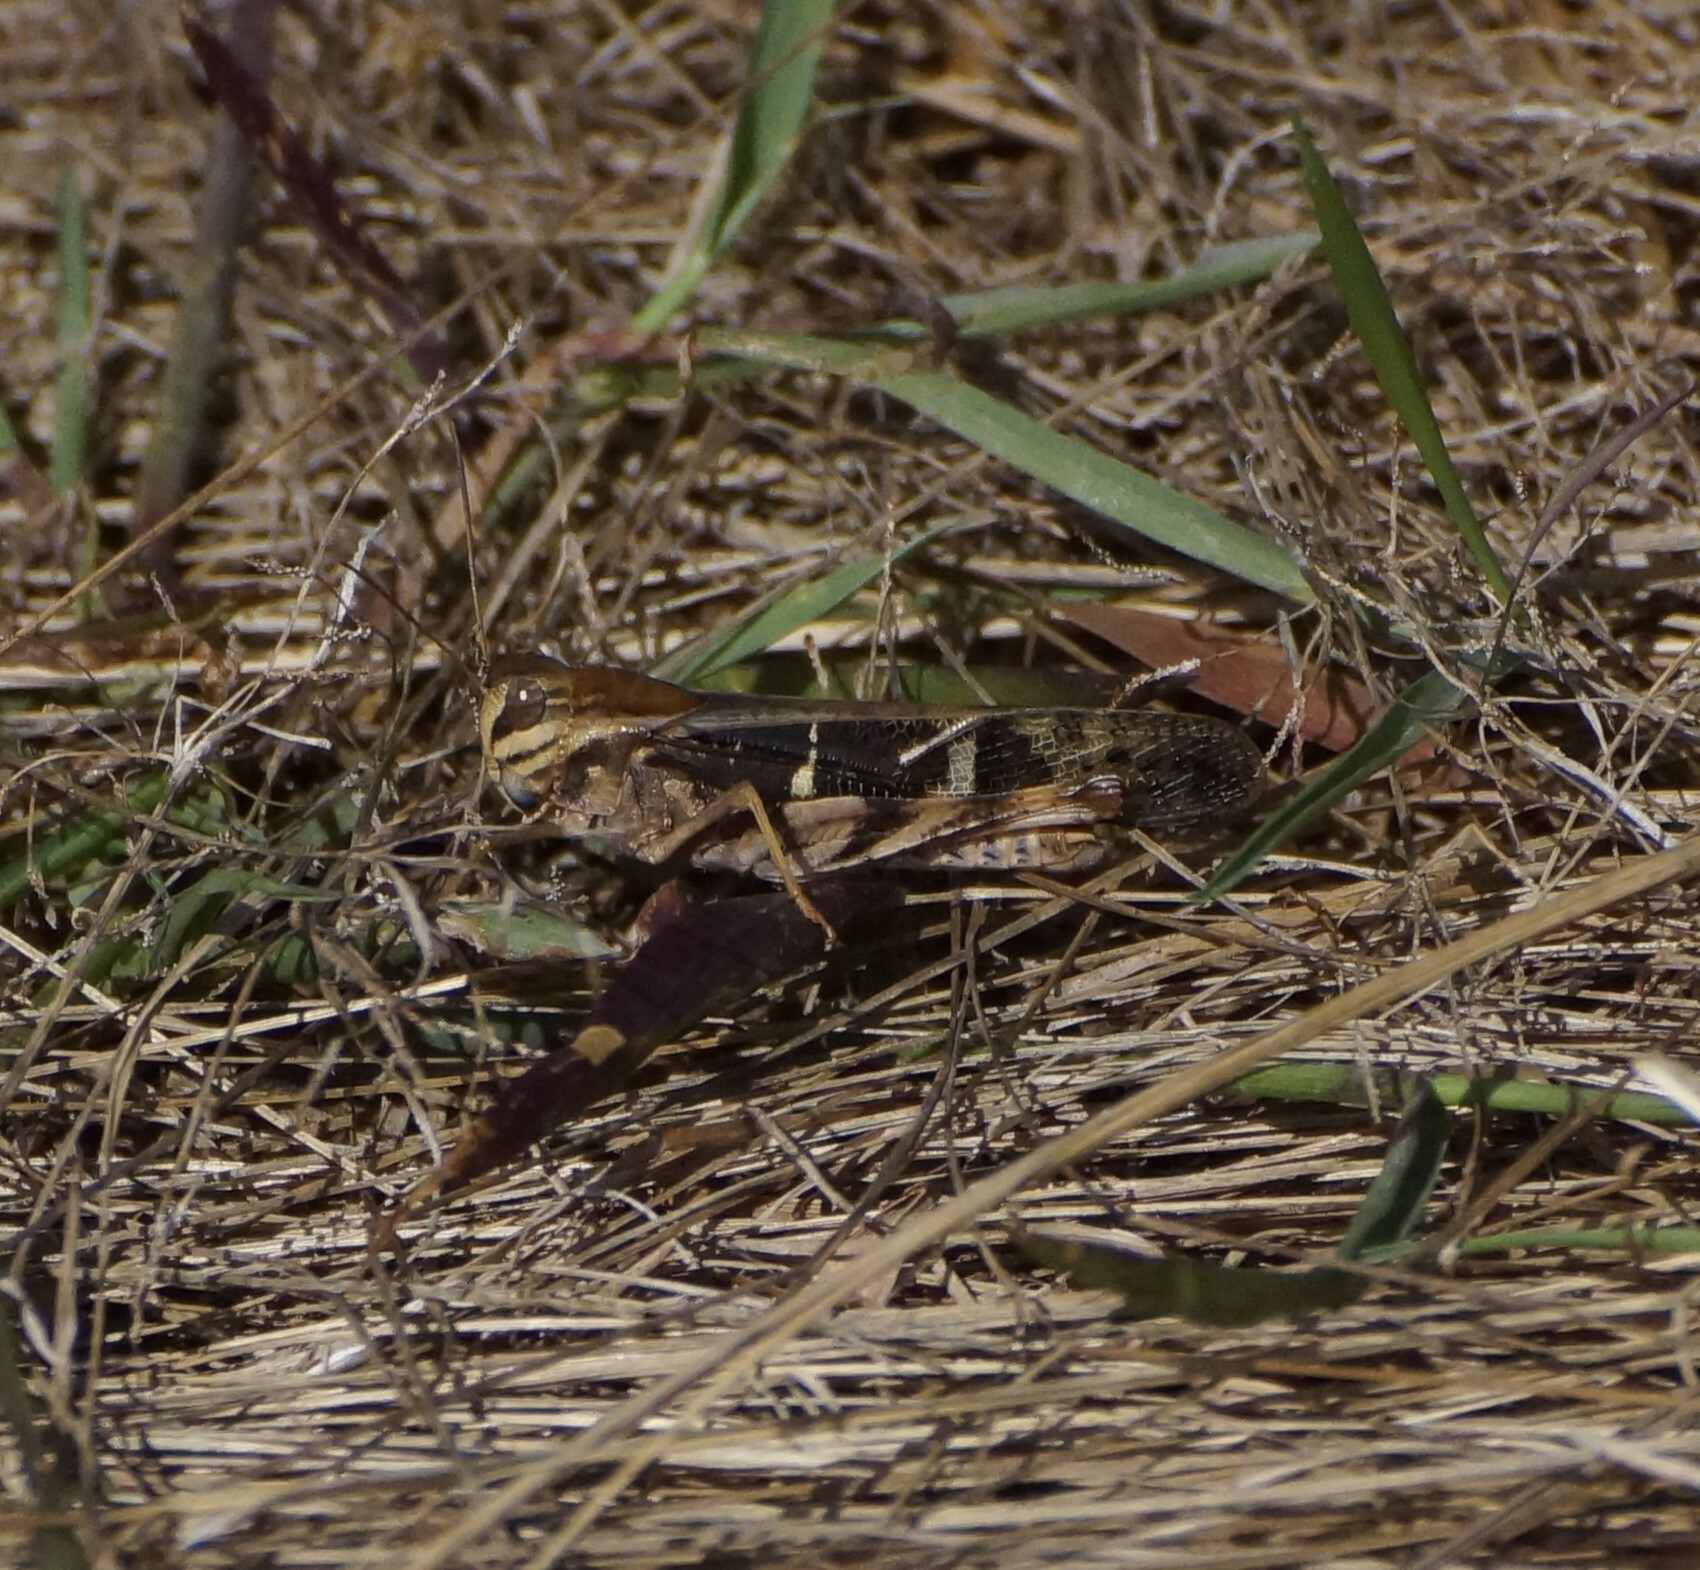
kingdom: Animalia
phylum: Arthropoda
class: Insecta
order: Orthoptera
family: Acrididae
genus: Gastrimargus
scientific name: Gastrimargus musicus
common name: Yellow-winged locust
